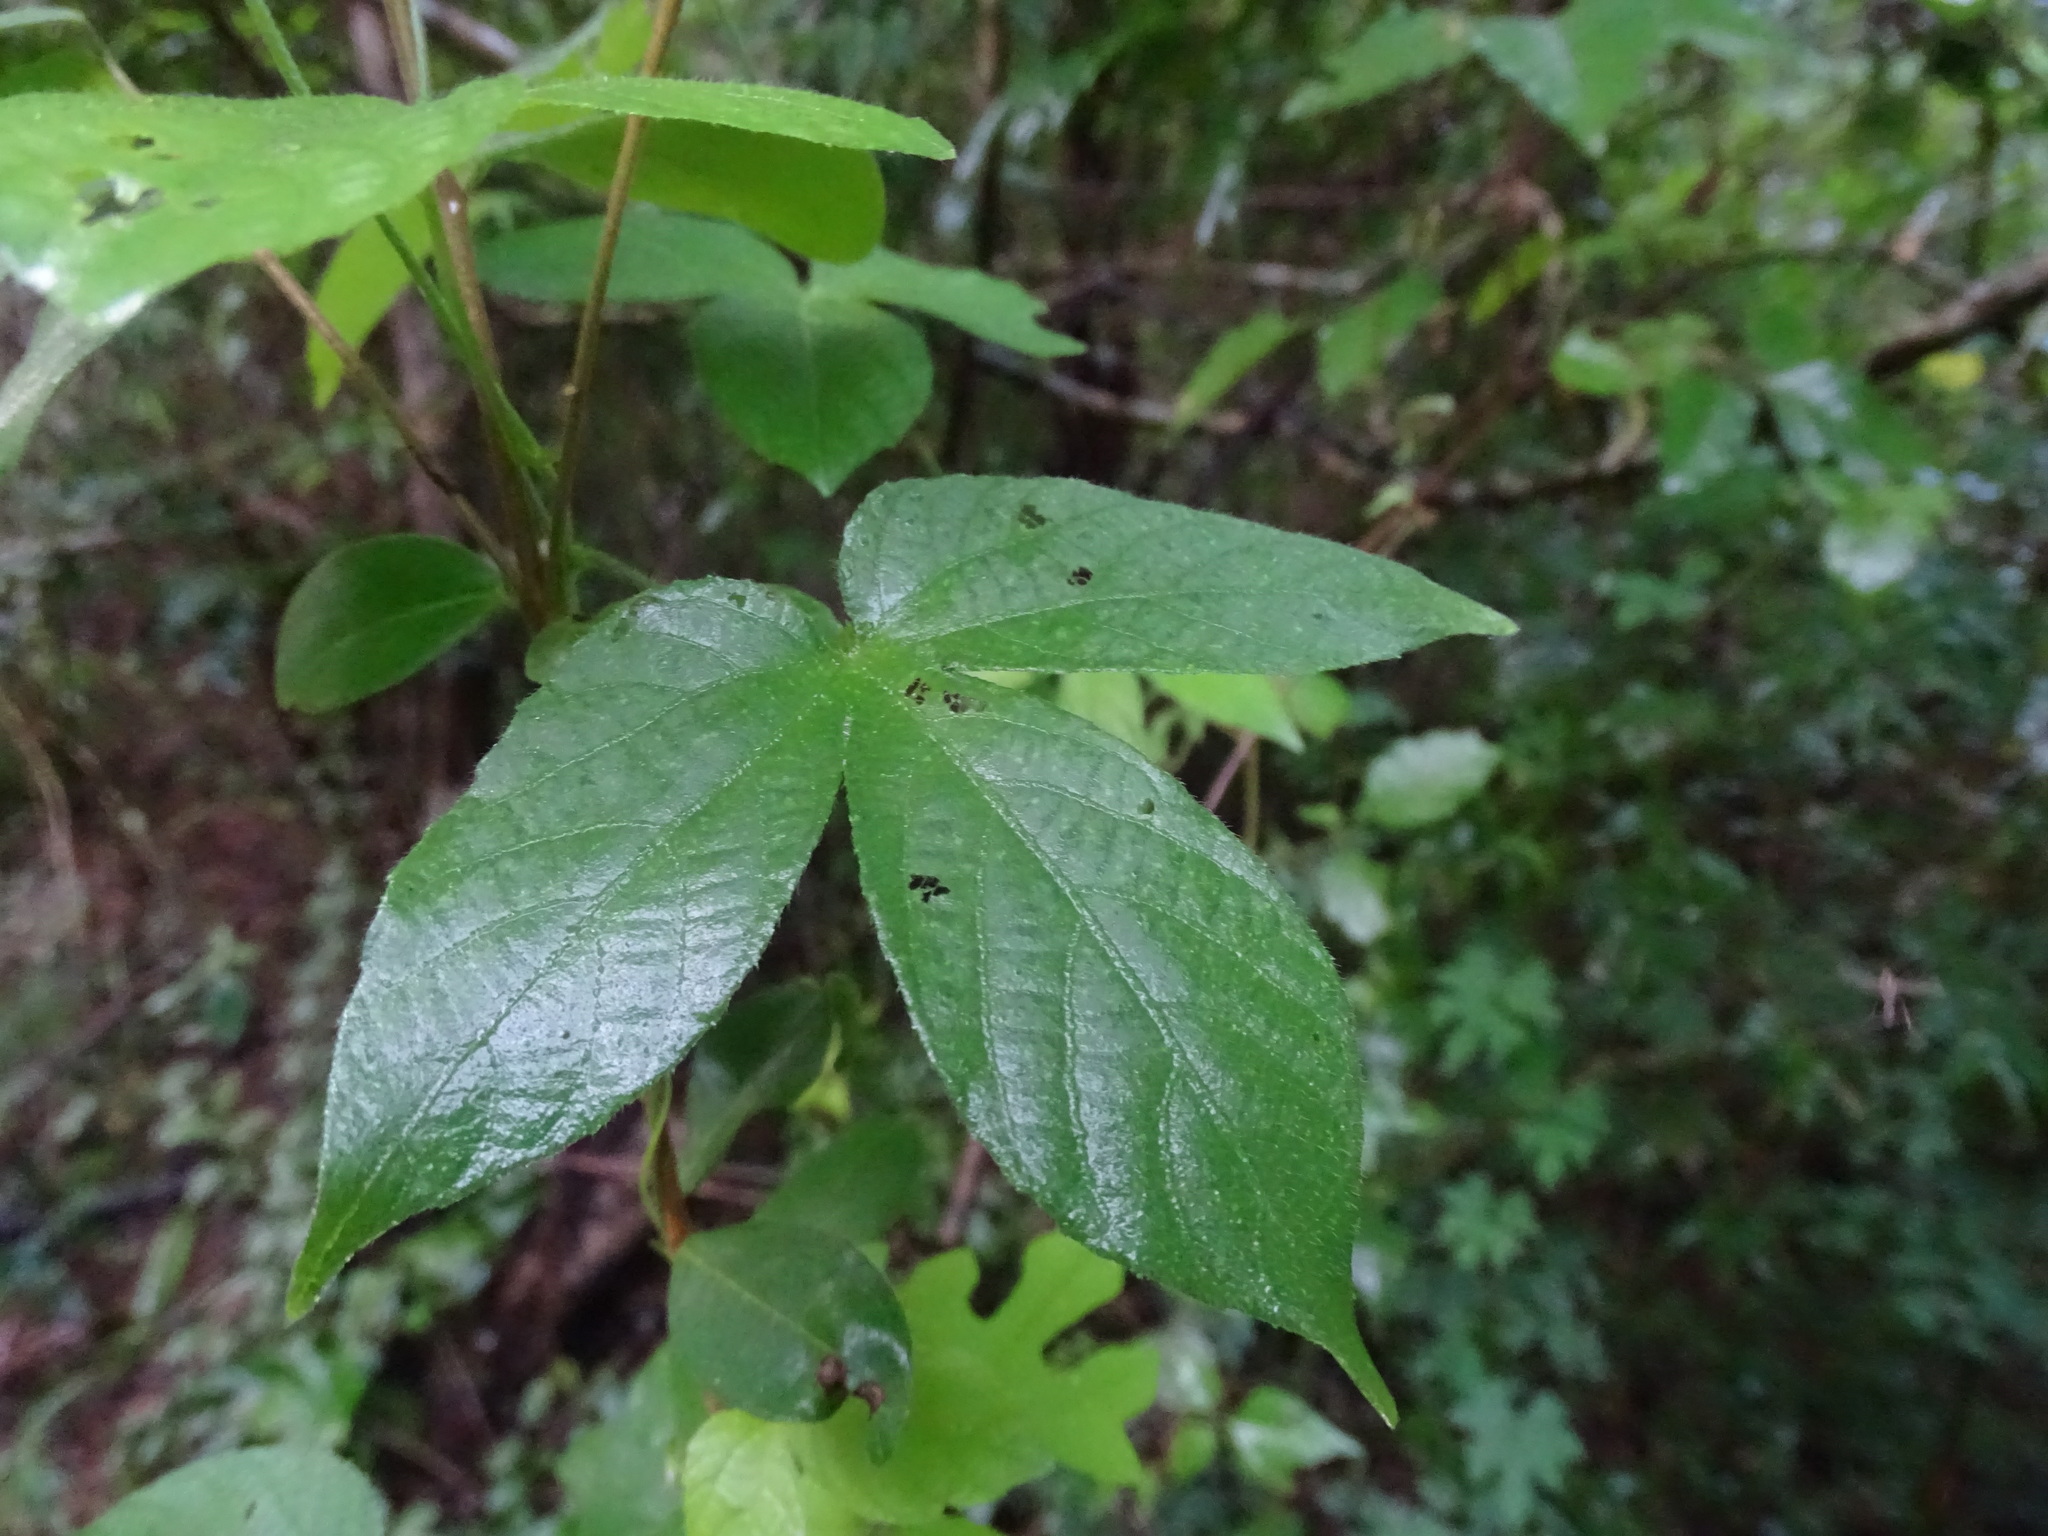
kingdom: Plantae
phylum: Tracheophyta
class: Magnoliopsida
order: Solanales
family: Convolvulaceae
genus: Ipomoea
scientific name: Ipomoea peteri
